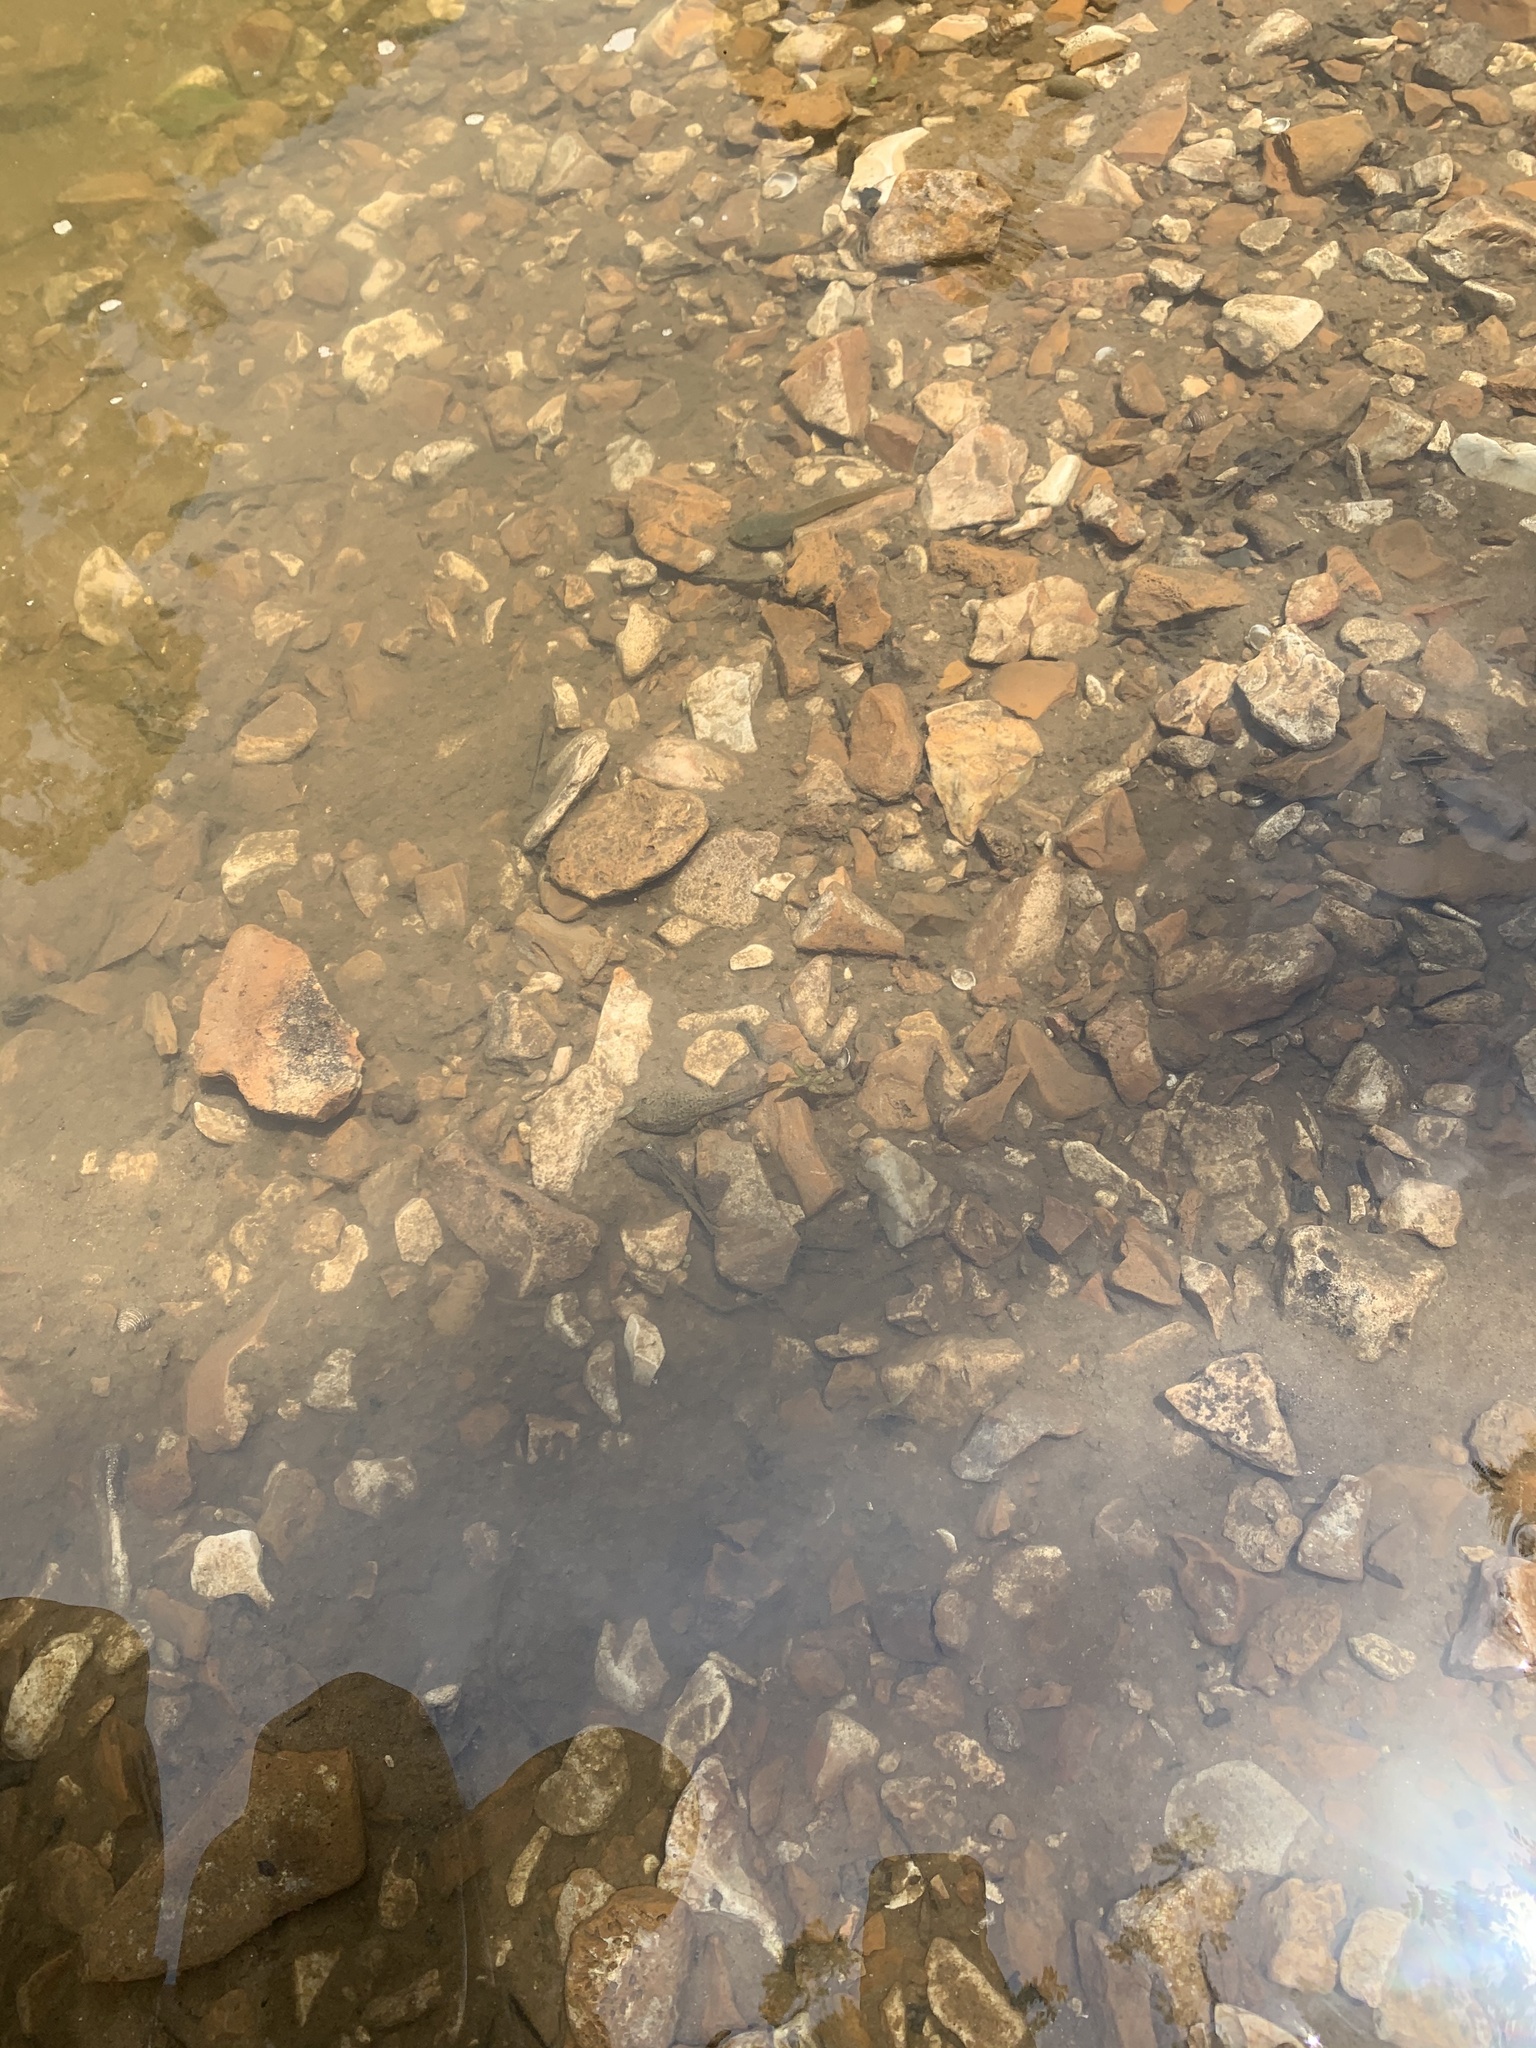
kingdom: Animalia
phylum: Chordata
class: Amphibia
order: Anura
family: Ranidae
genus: Lithobates
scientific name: Lithobates catesbeianus
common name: American bullfrog
